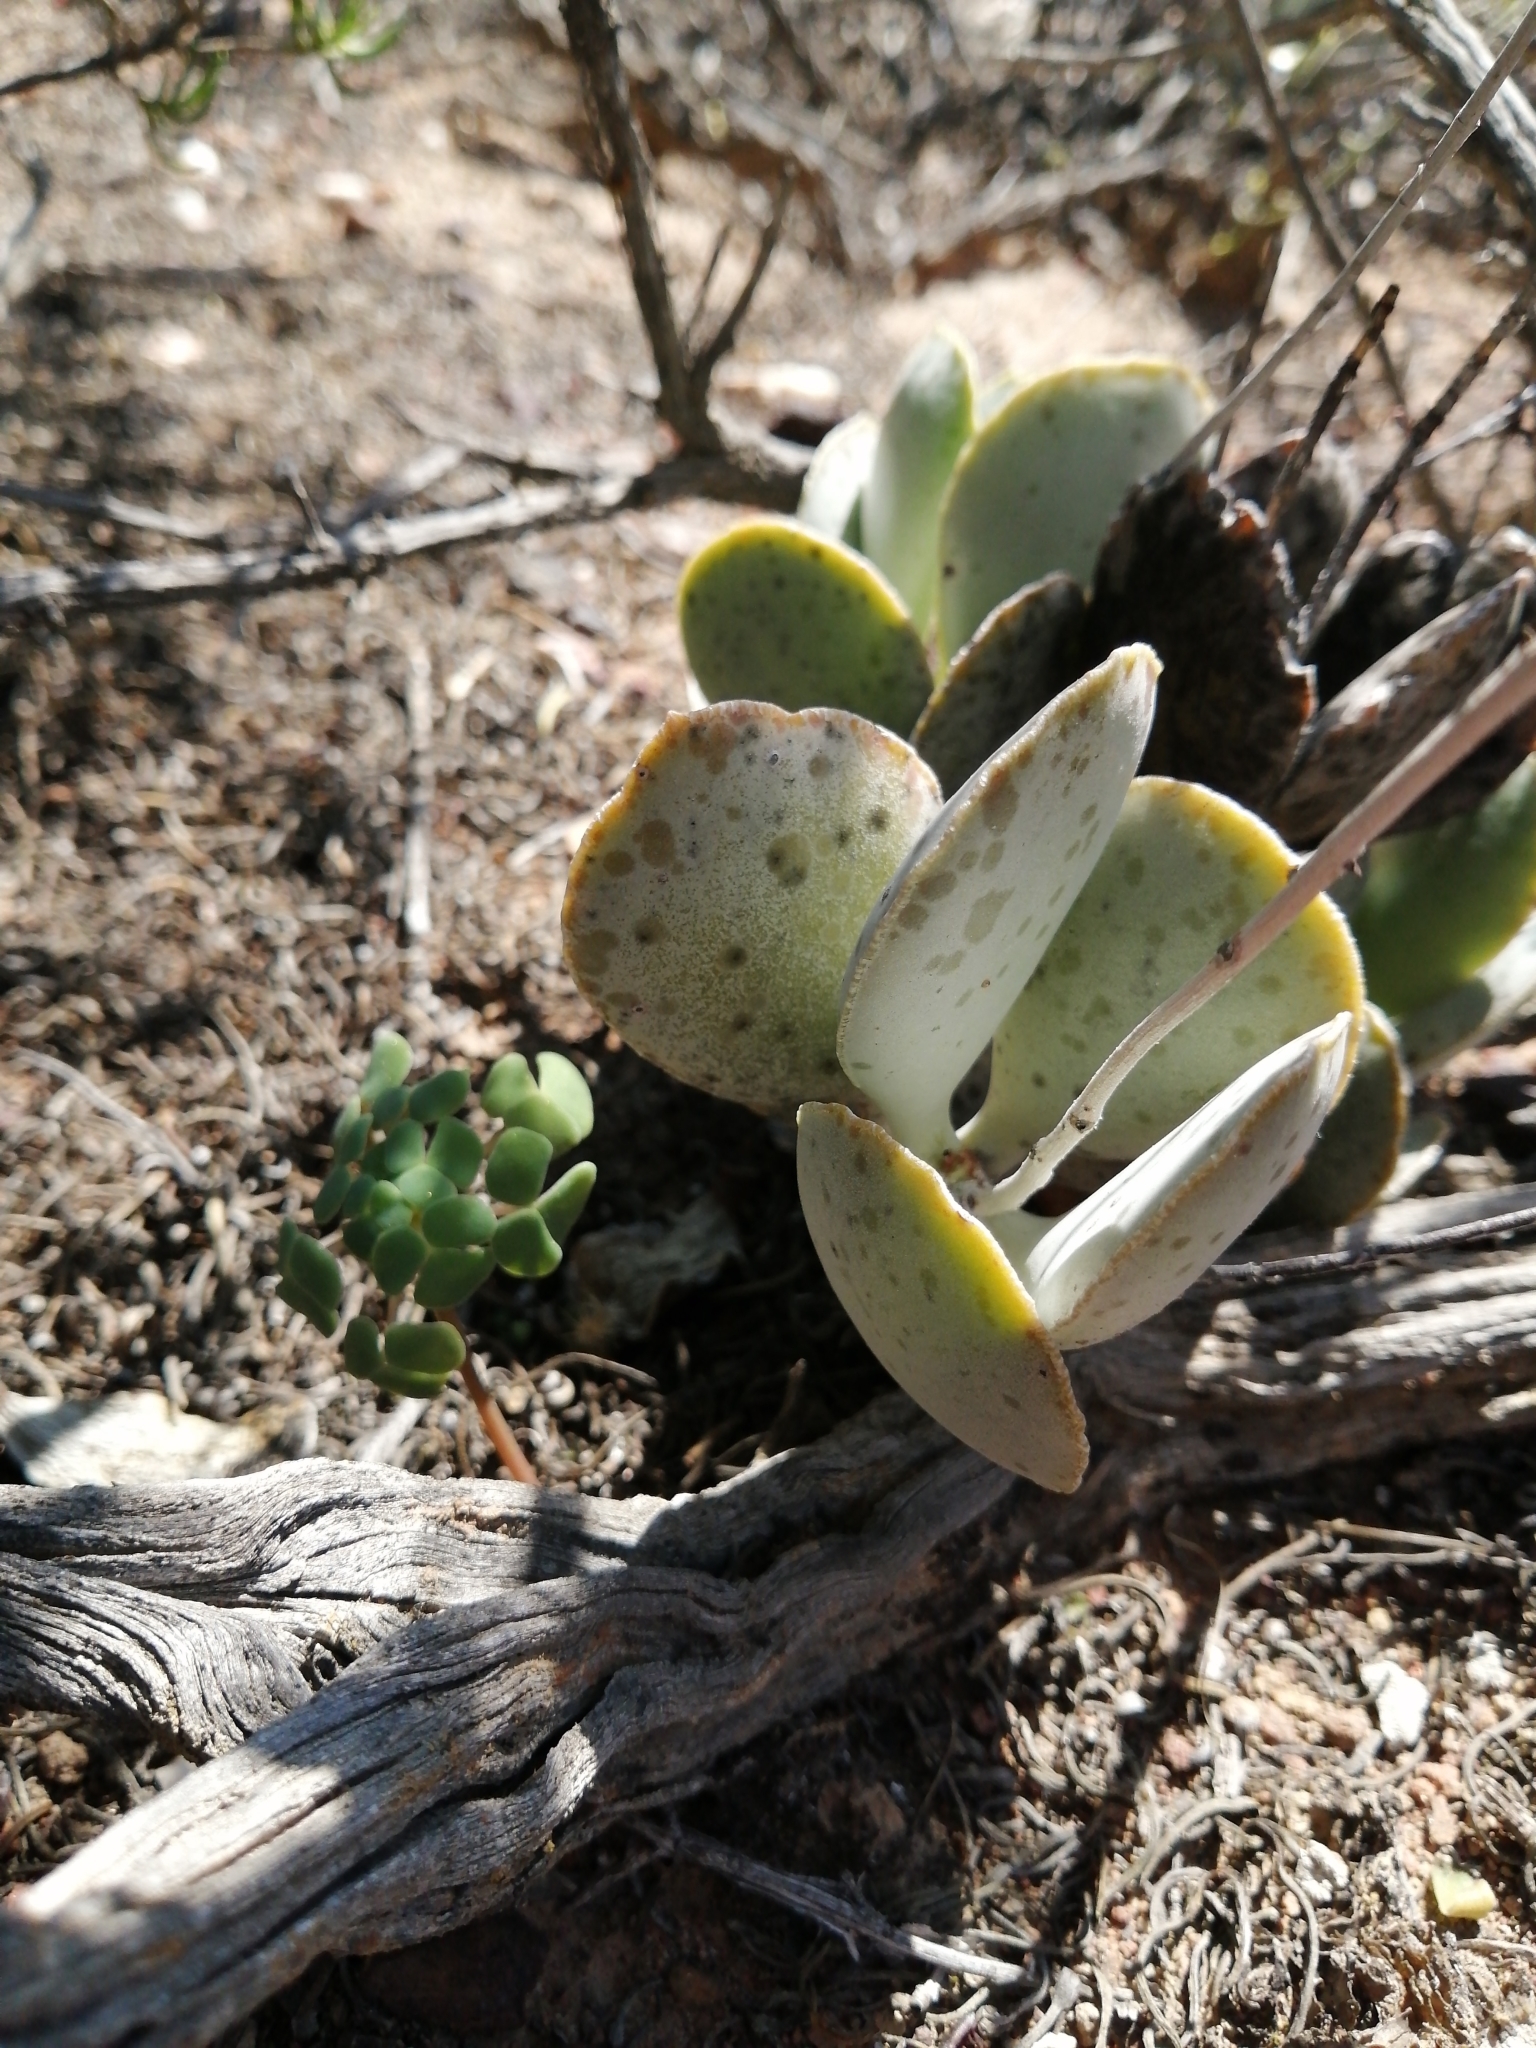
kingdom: Plantae
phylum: Tracheophyta
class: Magnoliopsida
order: Saxifragales
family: Crassulaceae
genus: Adromischus
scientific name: Adromischus maculatus
